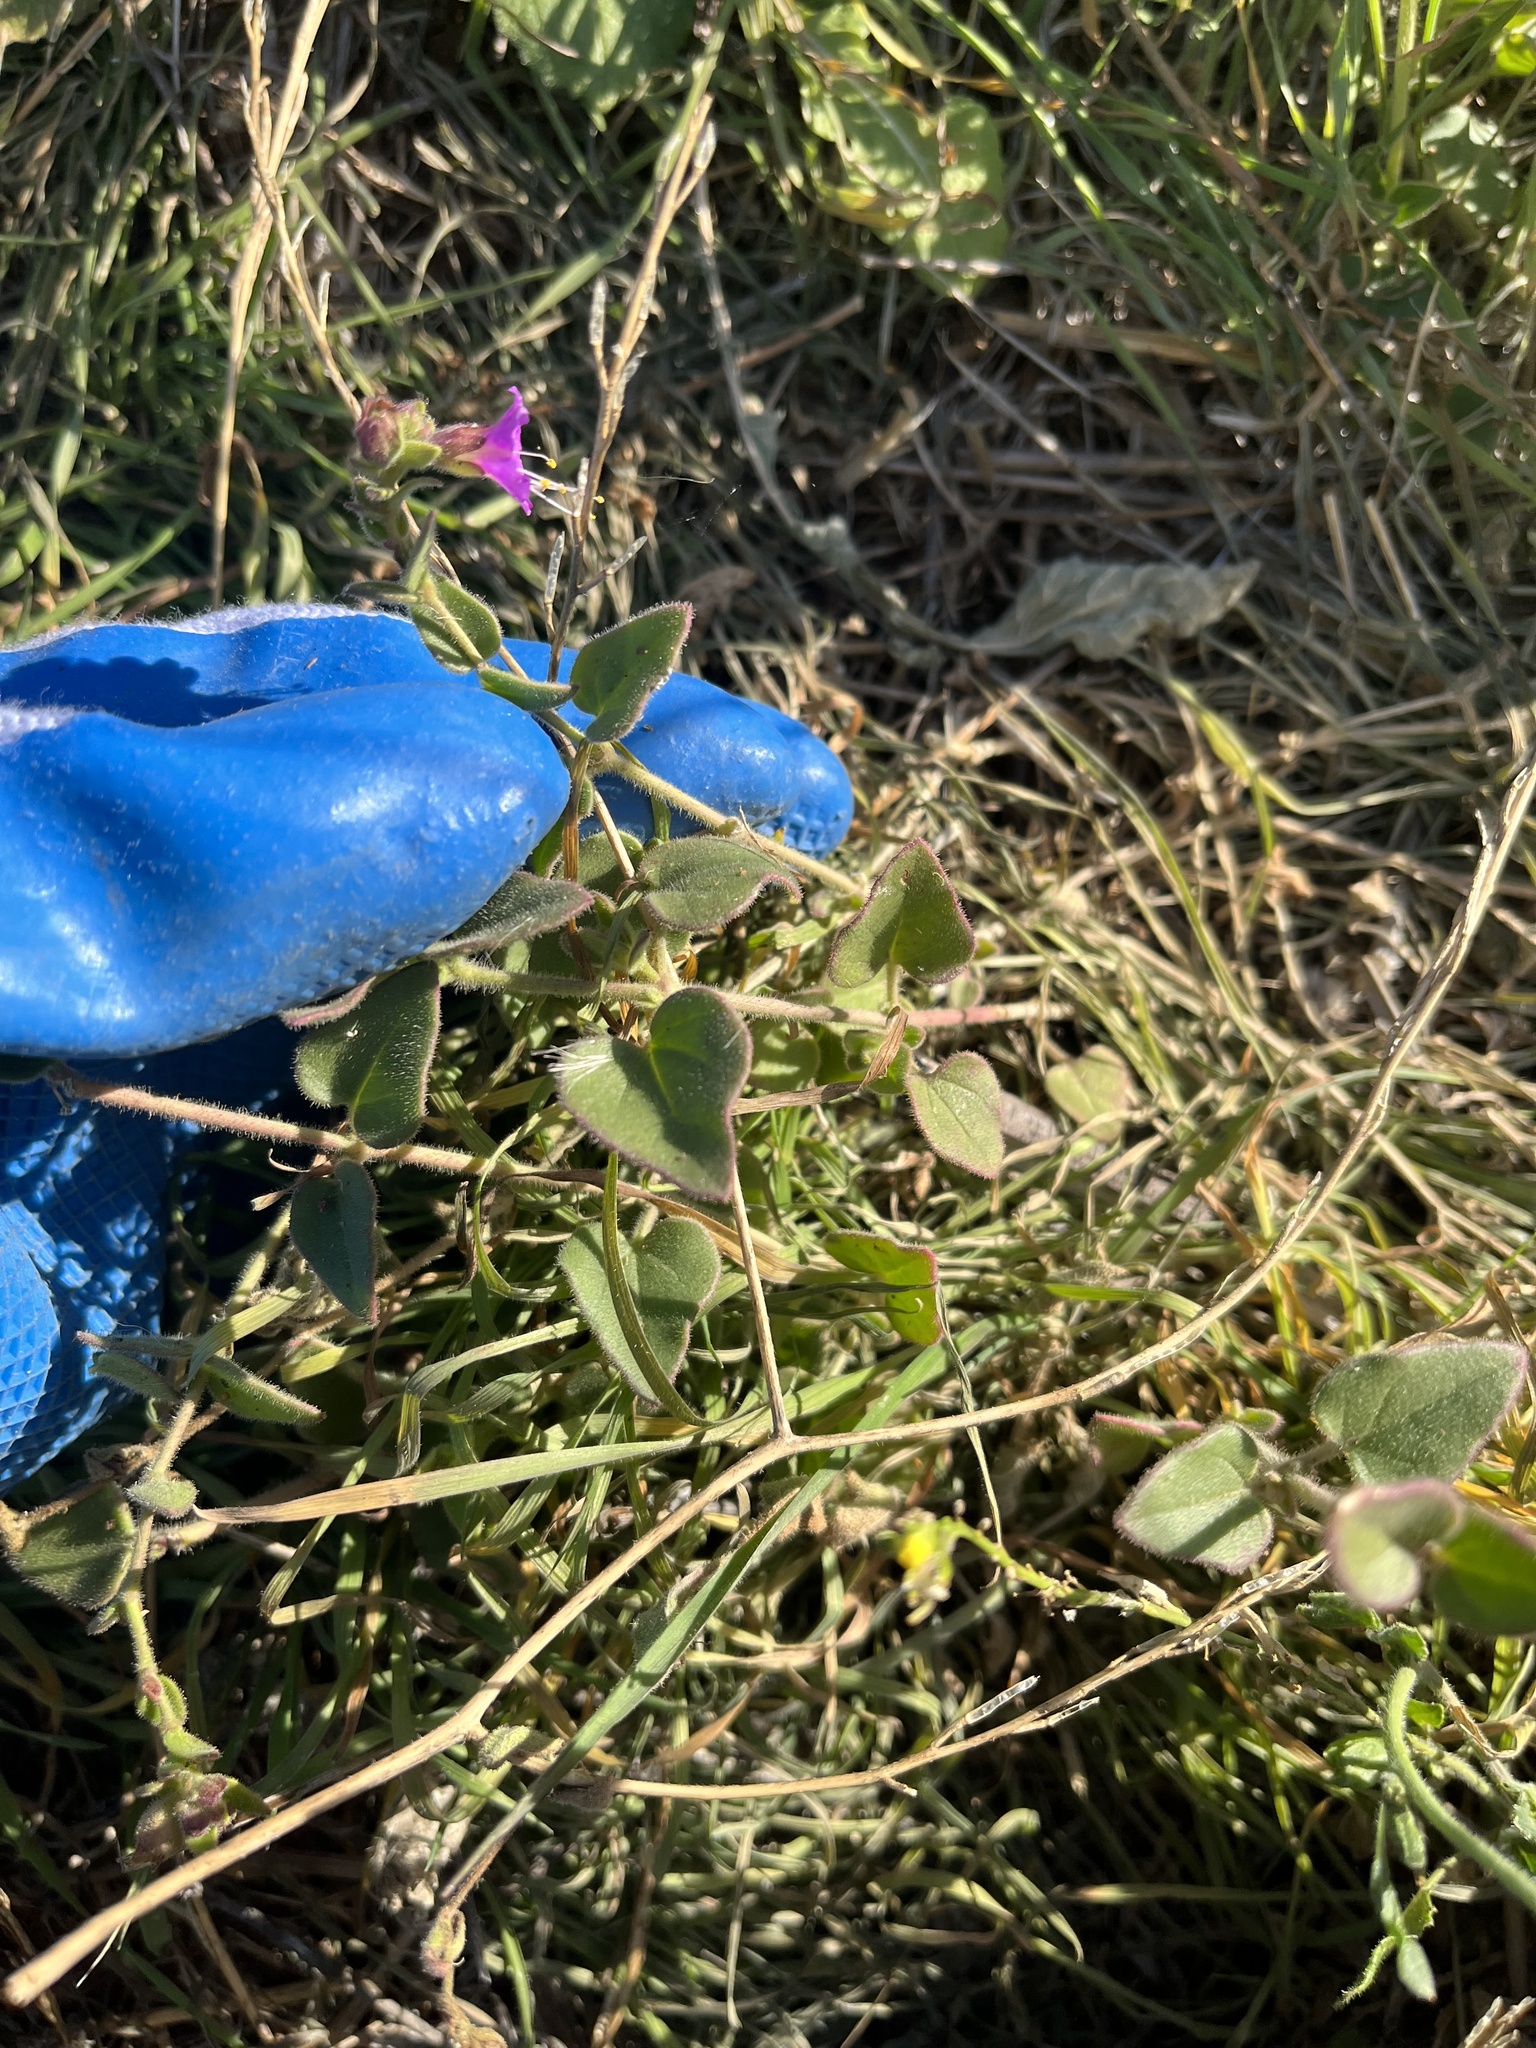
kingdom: Plantae
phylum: Tracheophyta
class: Magnoliopsida
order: Caryophyllales
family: Nyctaginaceae
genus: Mirabilis
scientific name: Mirabilis laevis
